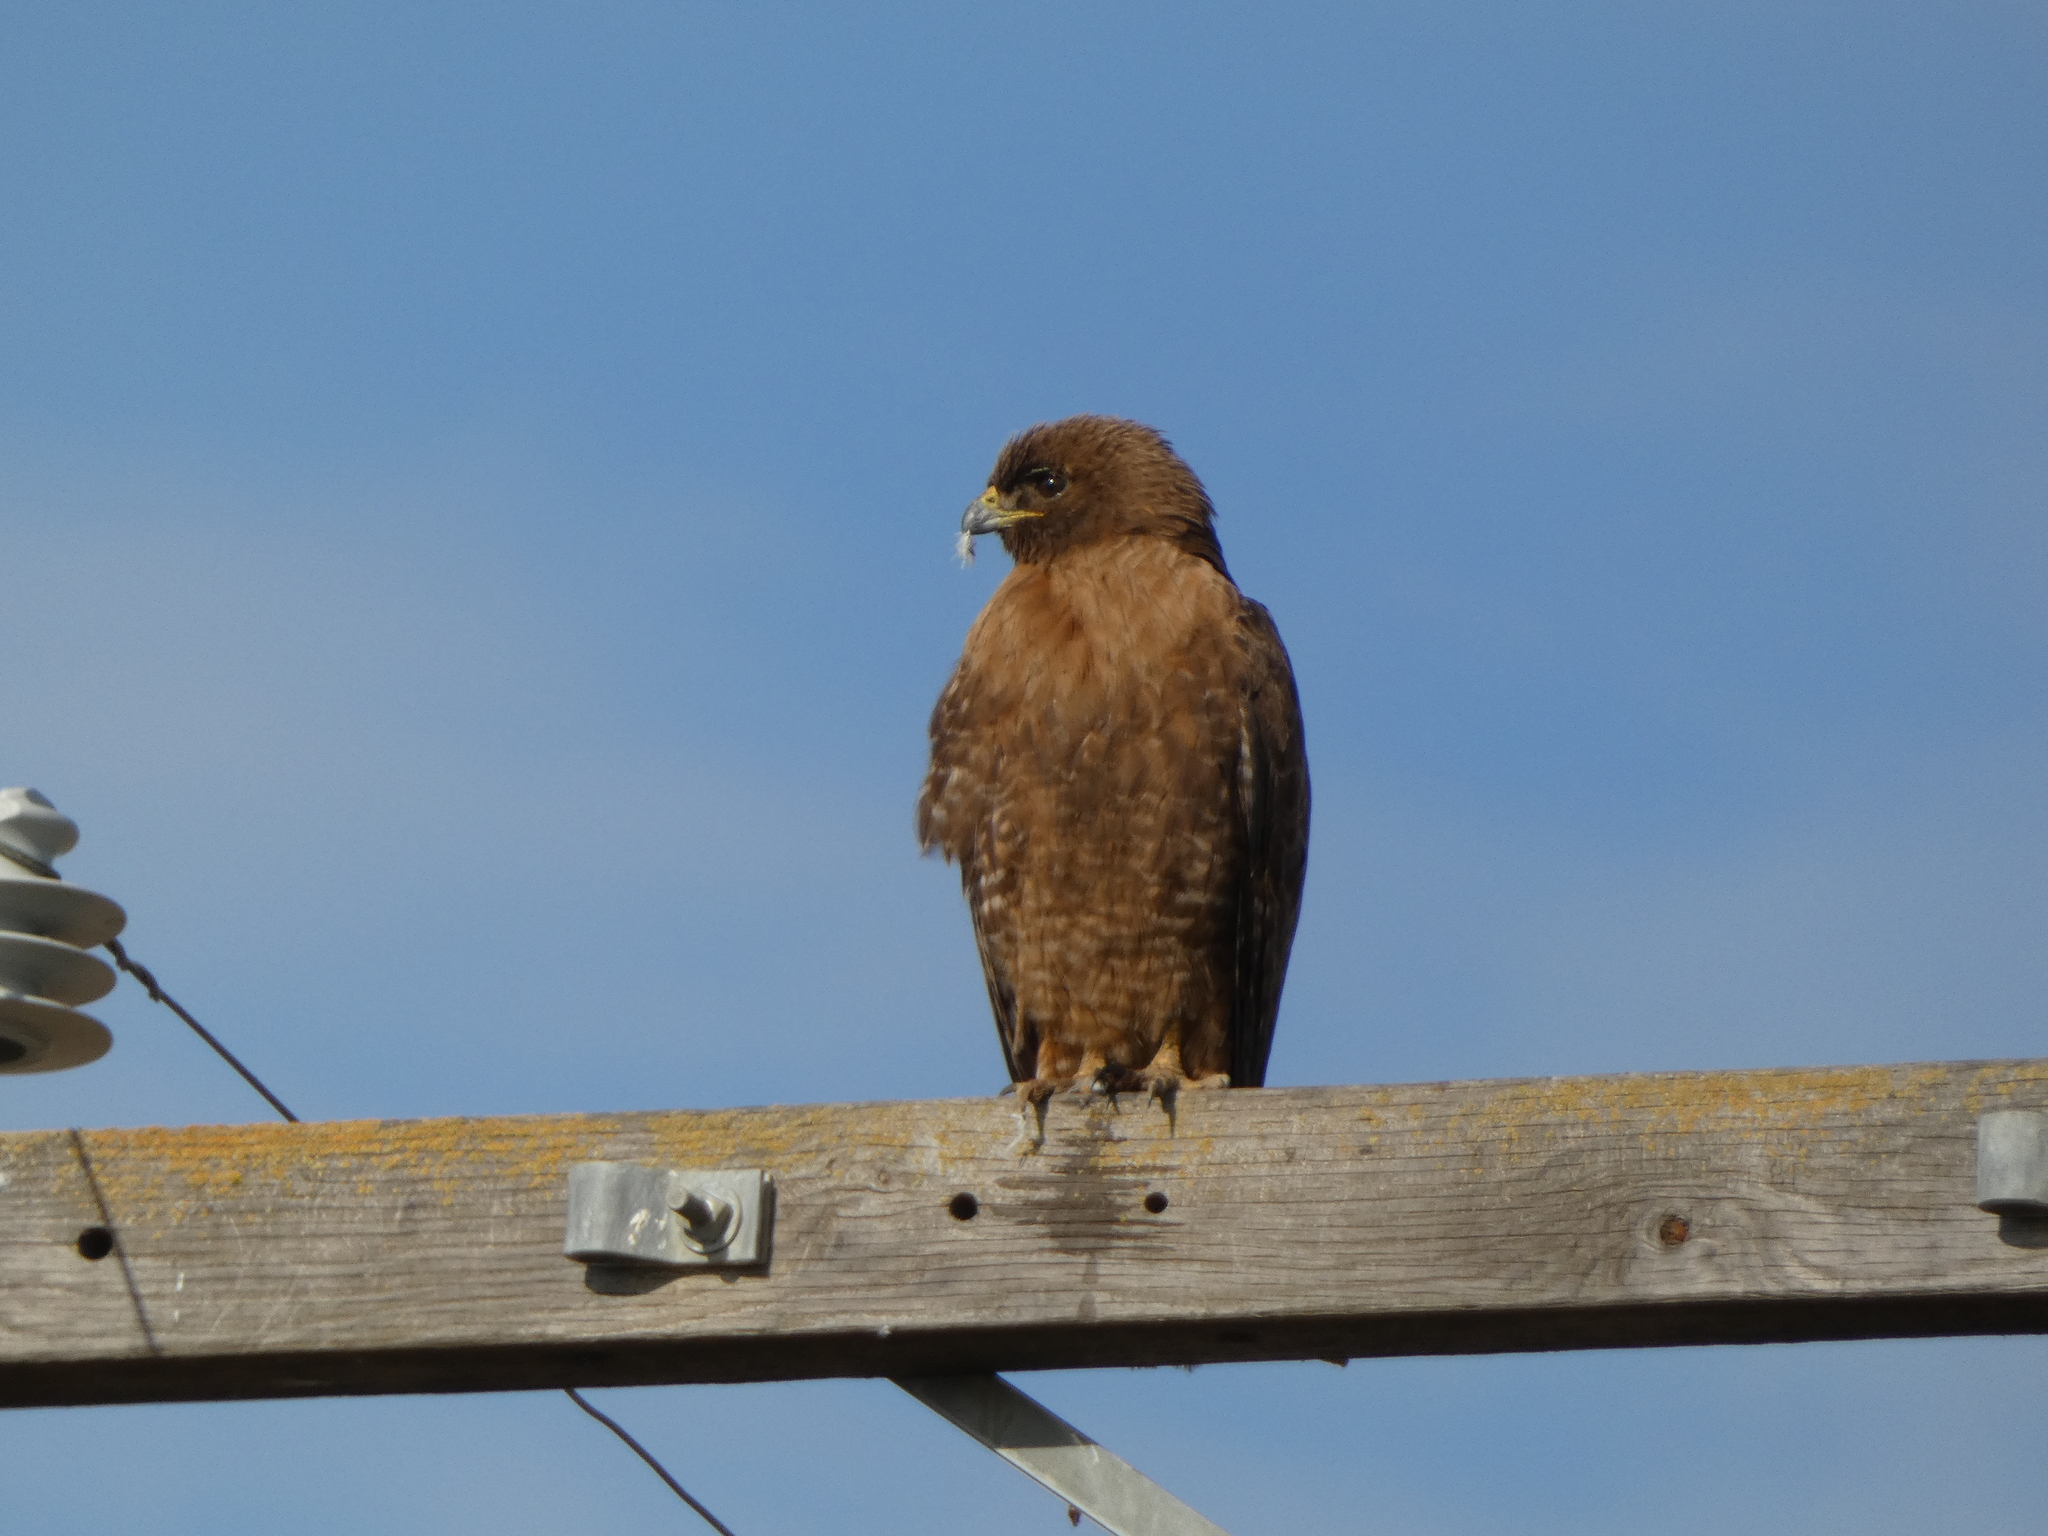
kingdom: Animalia
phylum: Chordata
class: Aves
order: Accipitriformes
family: Accipitridae
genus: Buteo
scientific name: Buteo jamaicensis
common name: Red-tailed hawk
